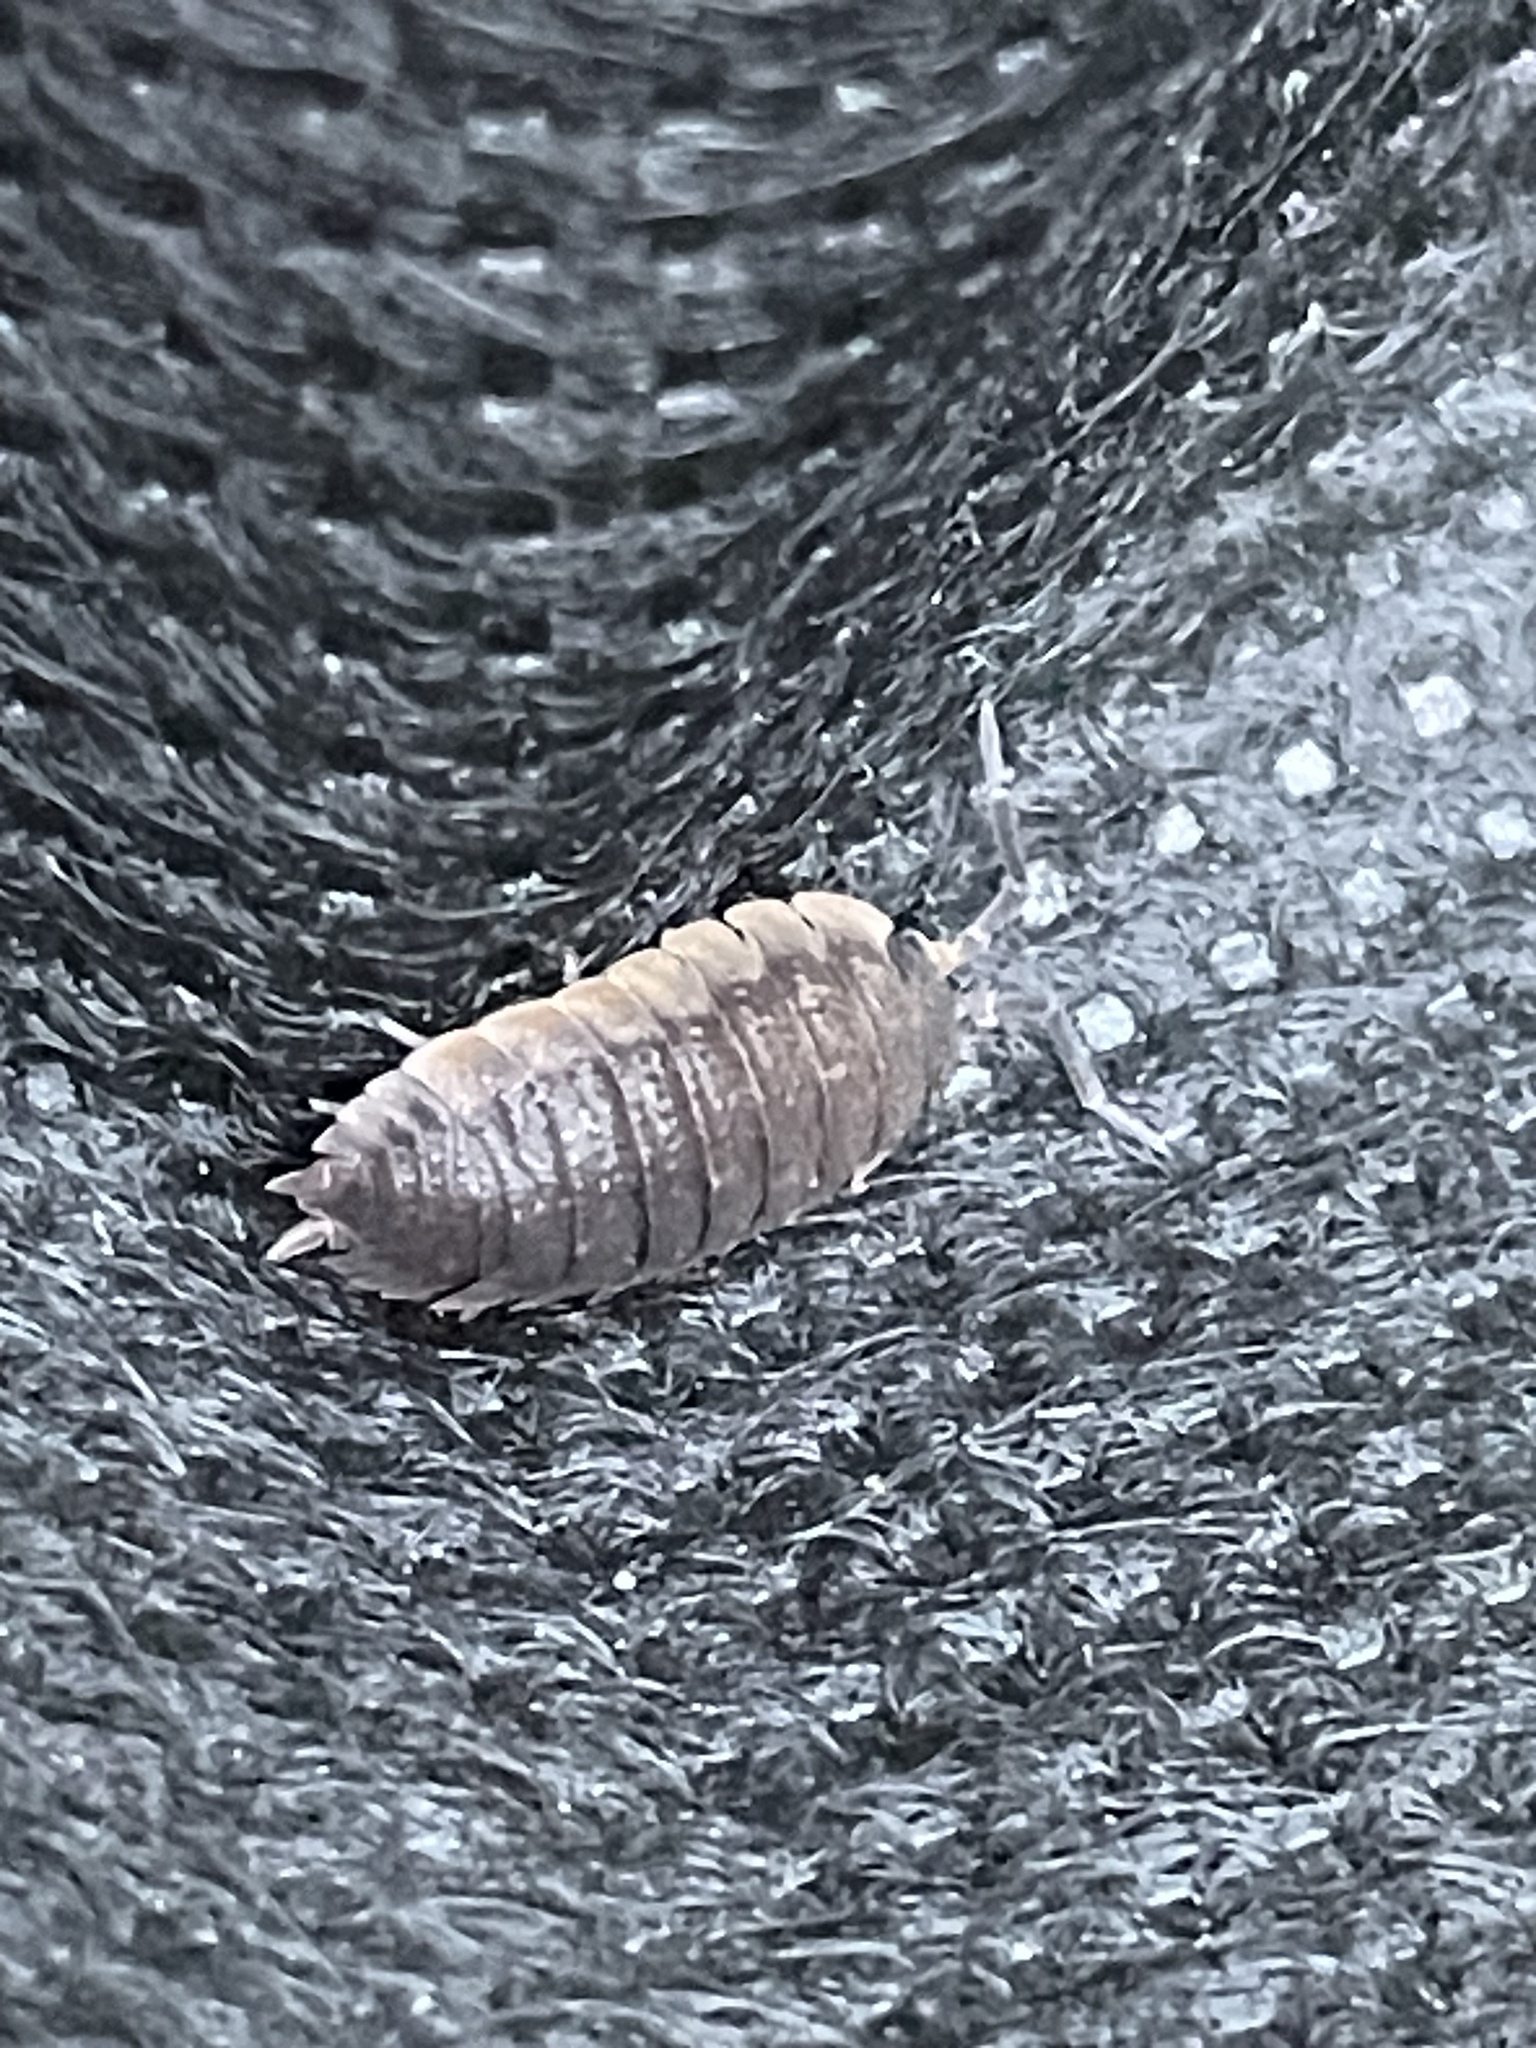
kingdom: Animalia
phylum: Arthropoda
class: Malacostraca
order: Isopoda
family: Porcellionidae
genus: Porcellio
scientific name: Porcellio scaber
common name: Common rough woodlouse
